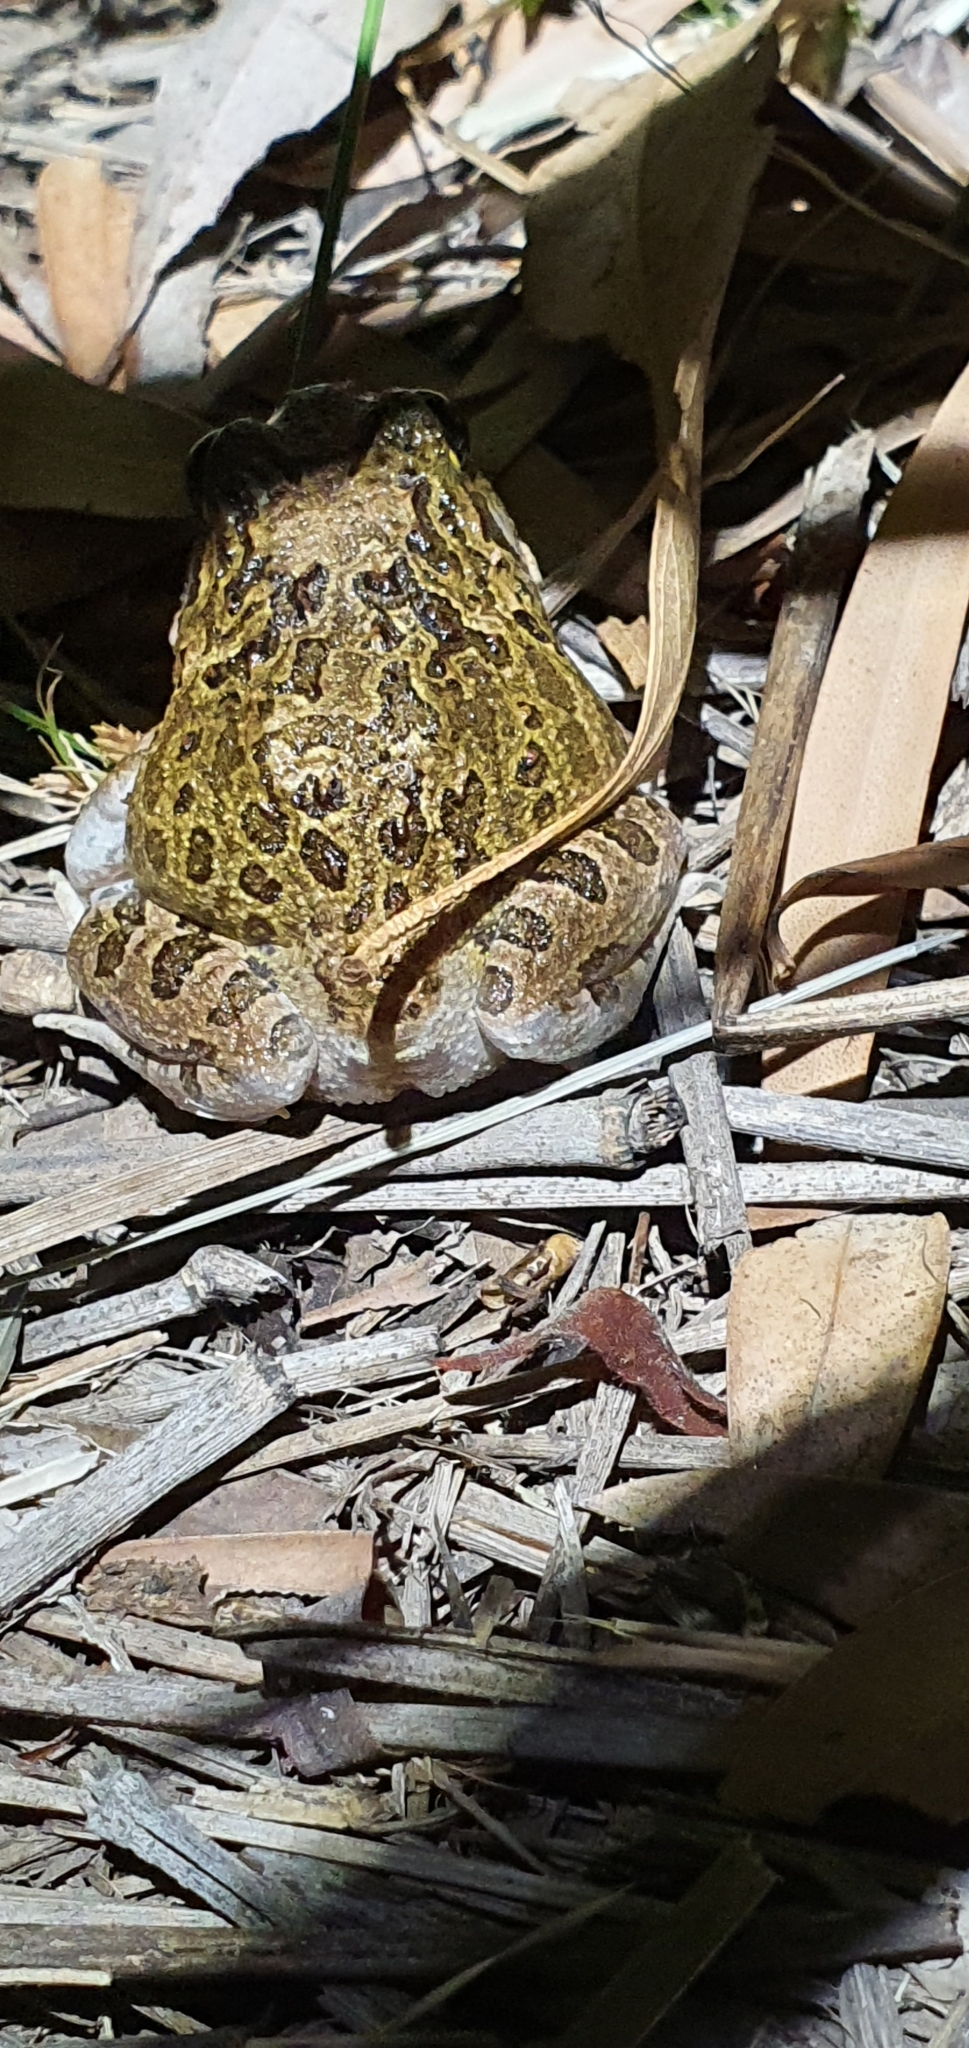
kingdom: Animalia
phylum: Chordata
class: Amphibia
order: Anura
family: Limnodynastidae
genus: Platyplectrum
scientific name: Platyplectrum ornatum
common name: Ornate burrowing frog
